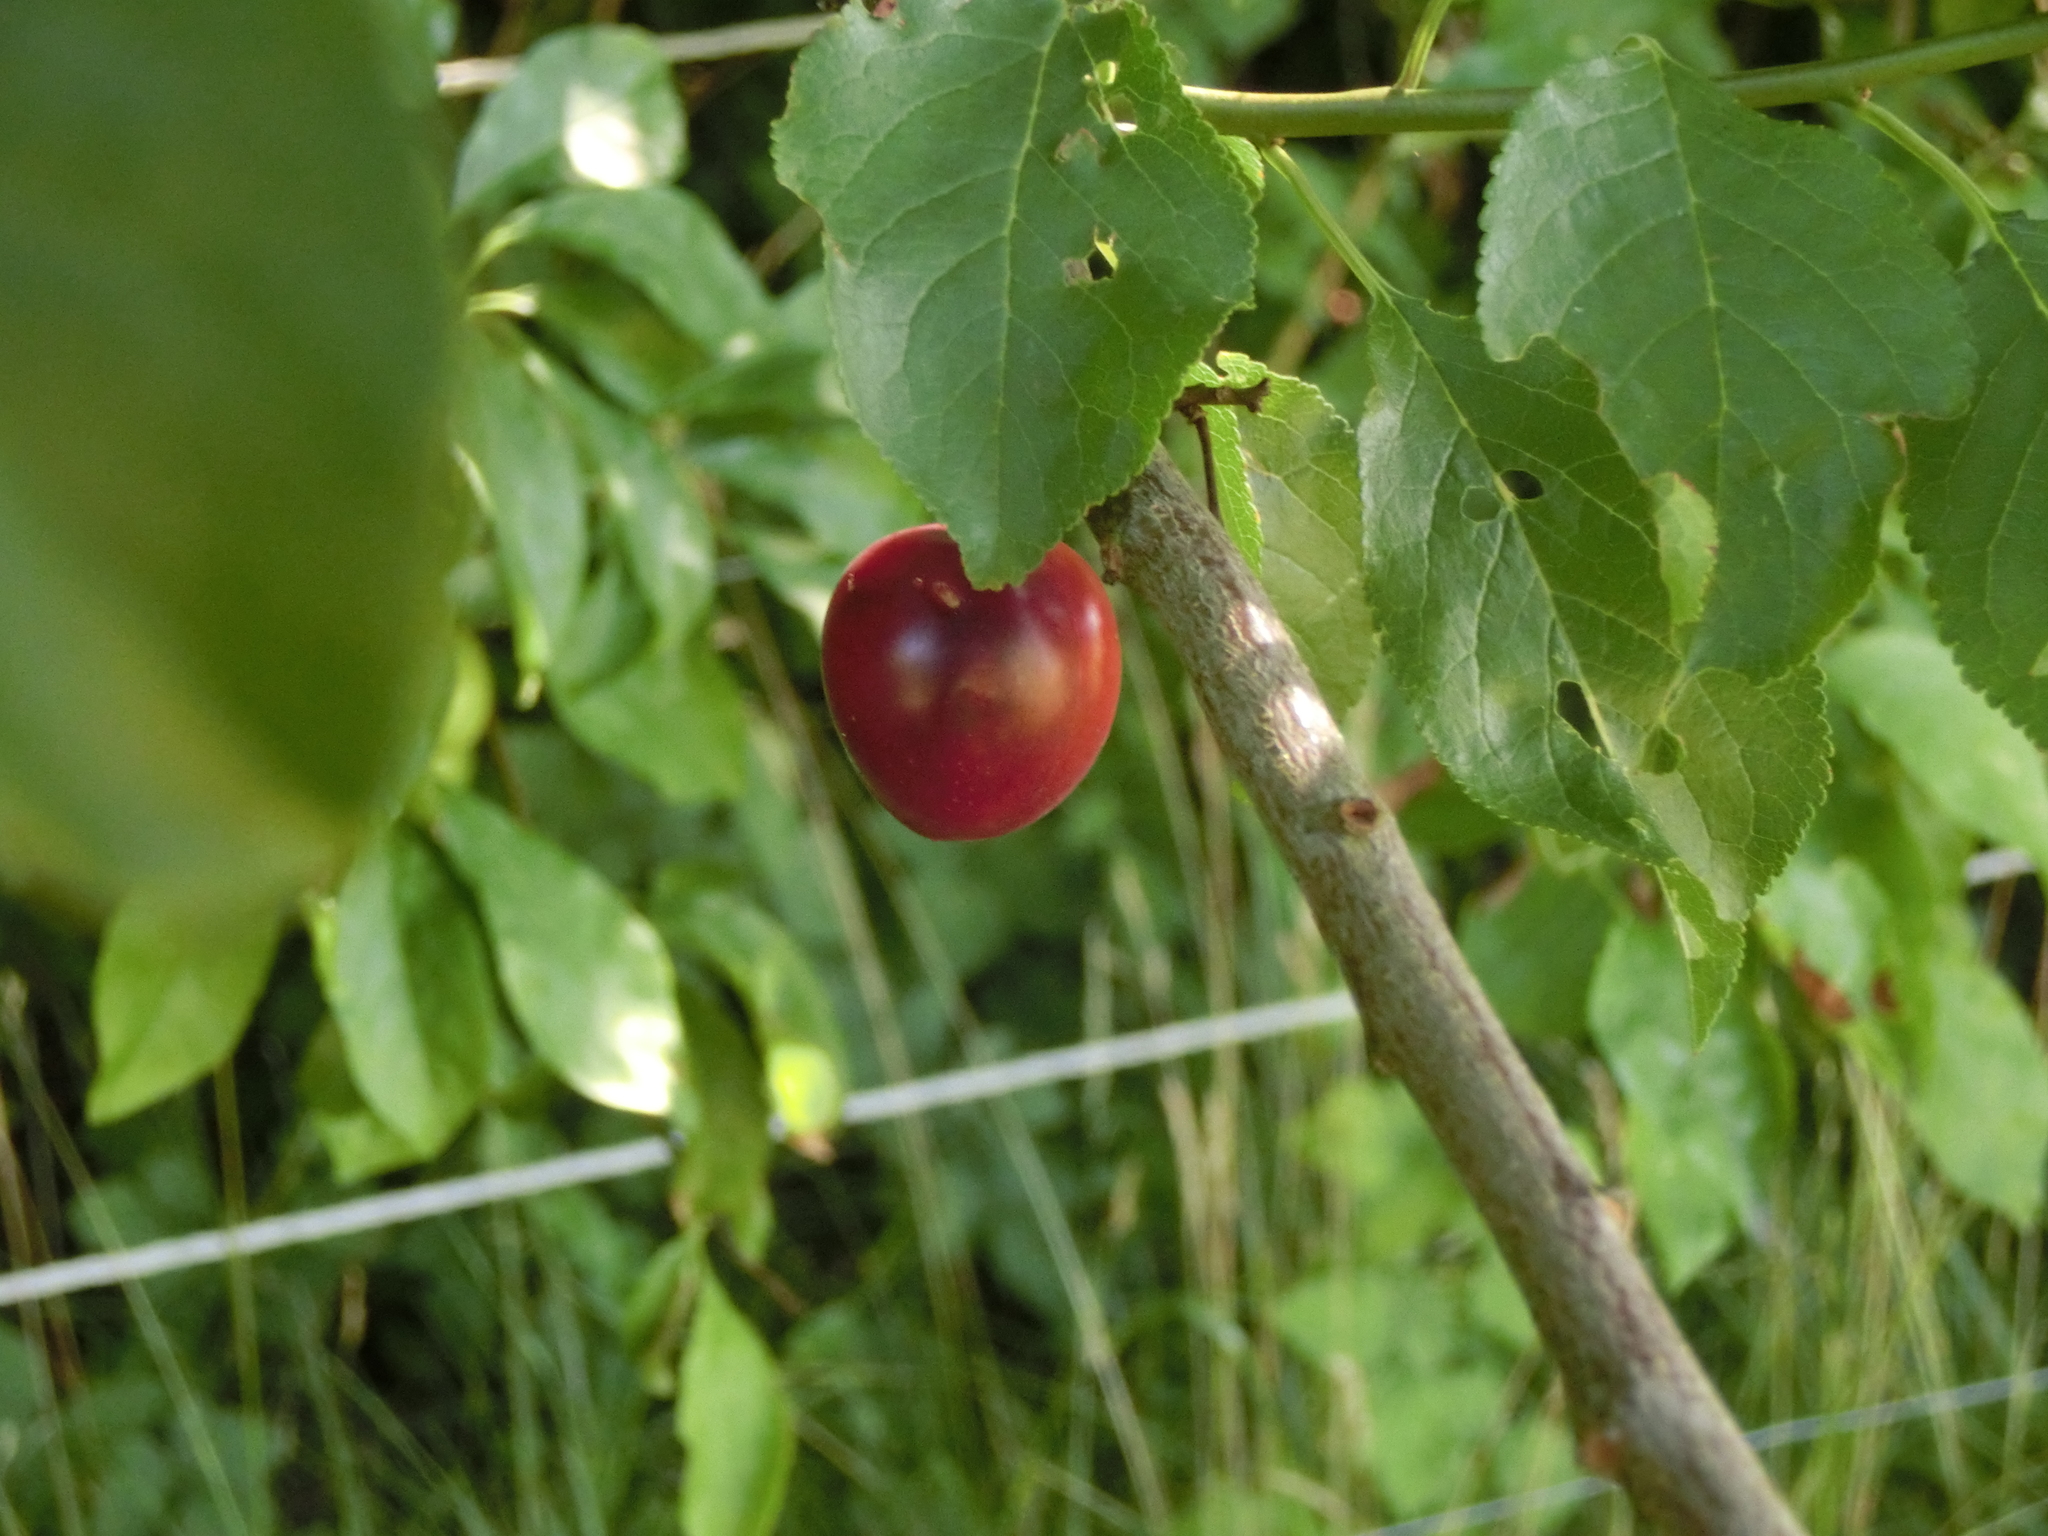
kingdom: Plantae
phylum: Tracheophyta
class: Magnoliopsida
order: Rosales
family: Rosaceae
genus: Prunus
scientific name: Prunus cerasifera
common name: Cherry plum
